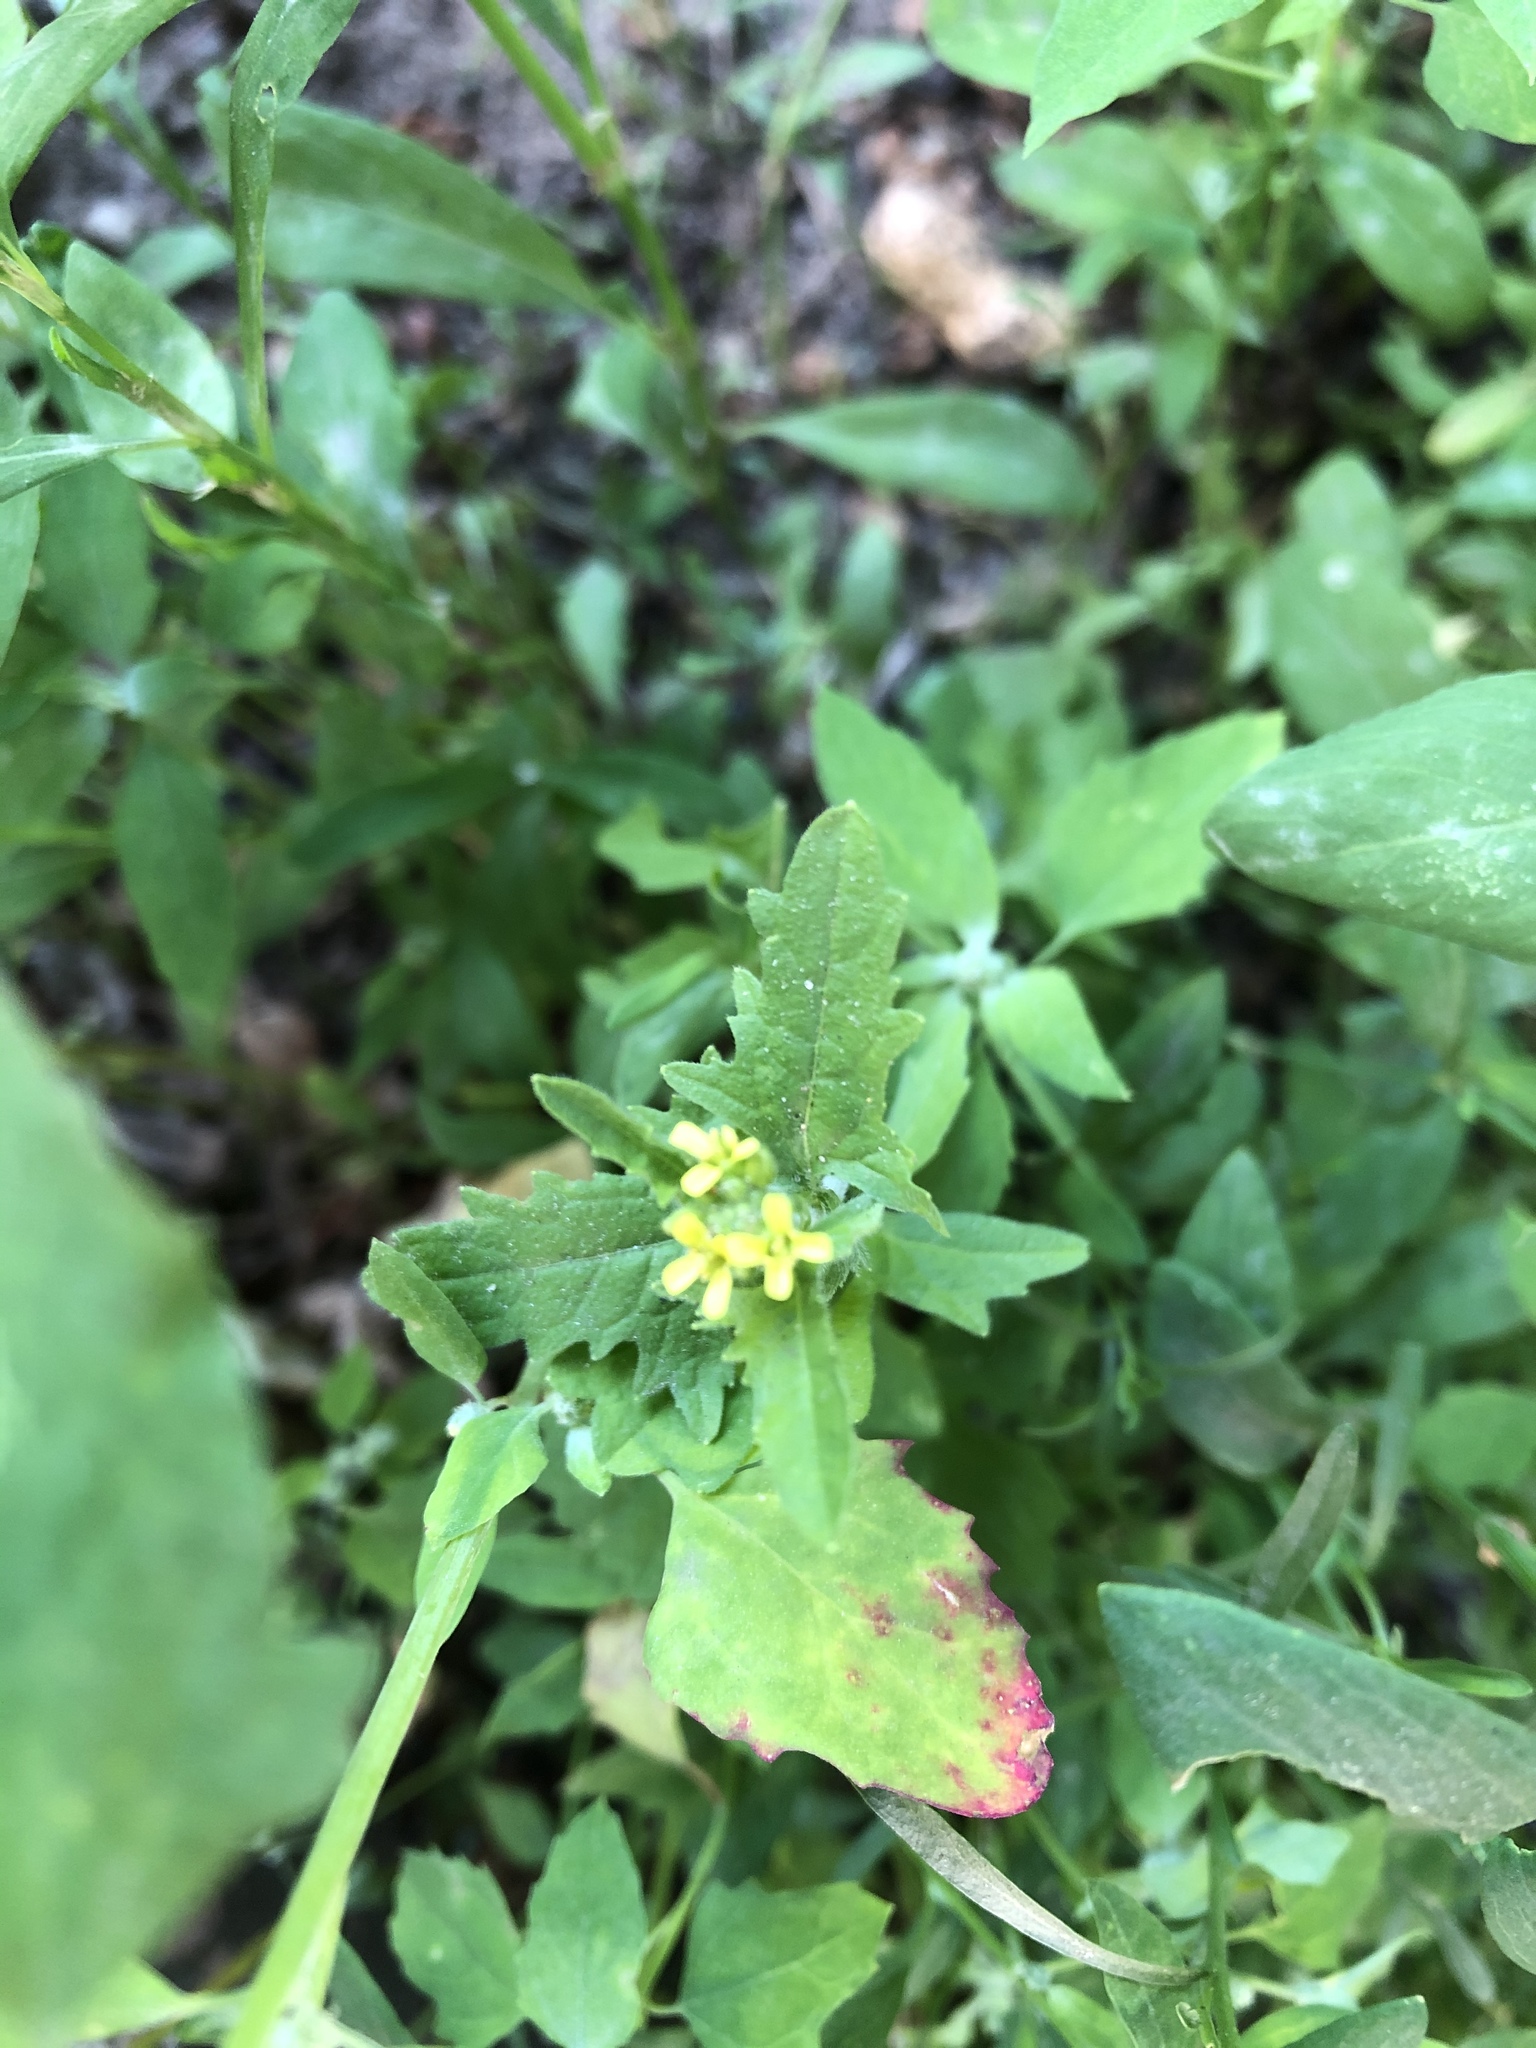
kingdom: Plantae
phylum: Tracheophyta
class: Magnoliopsida
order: Brassicales
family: Brassicaceae
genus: Sisymbrium
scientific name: Sisymbrium officinale
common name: Hedge mustard
